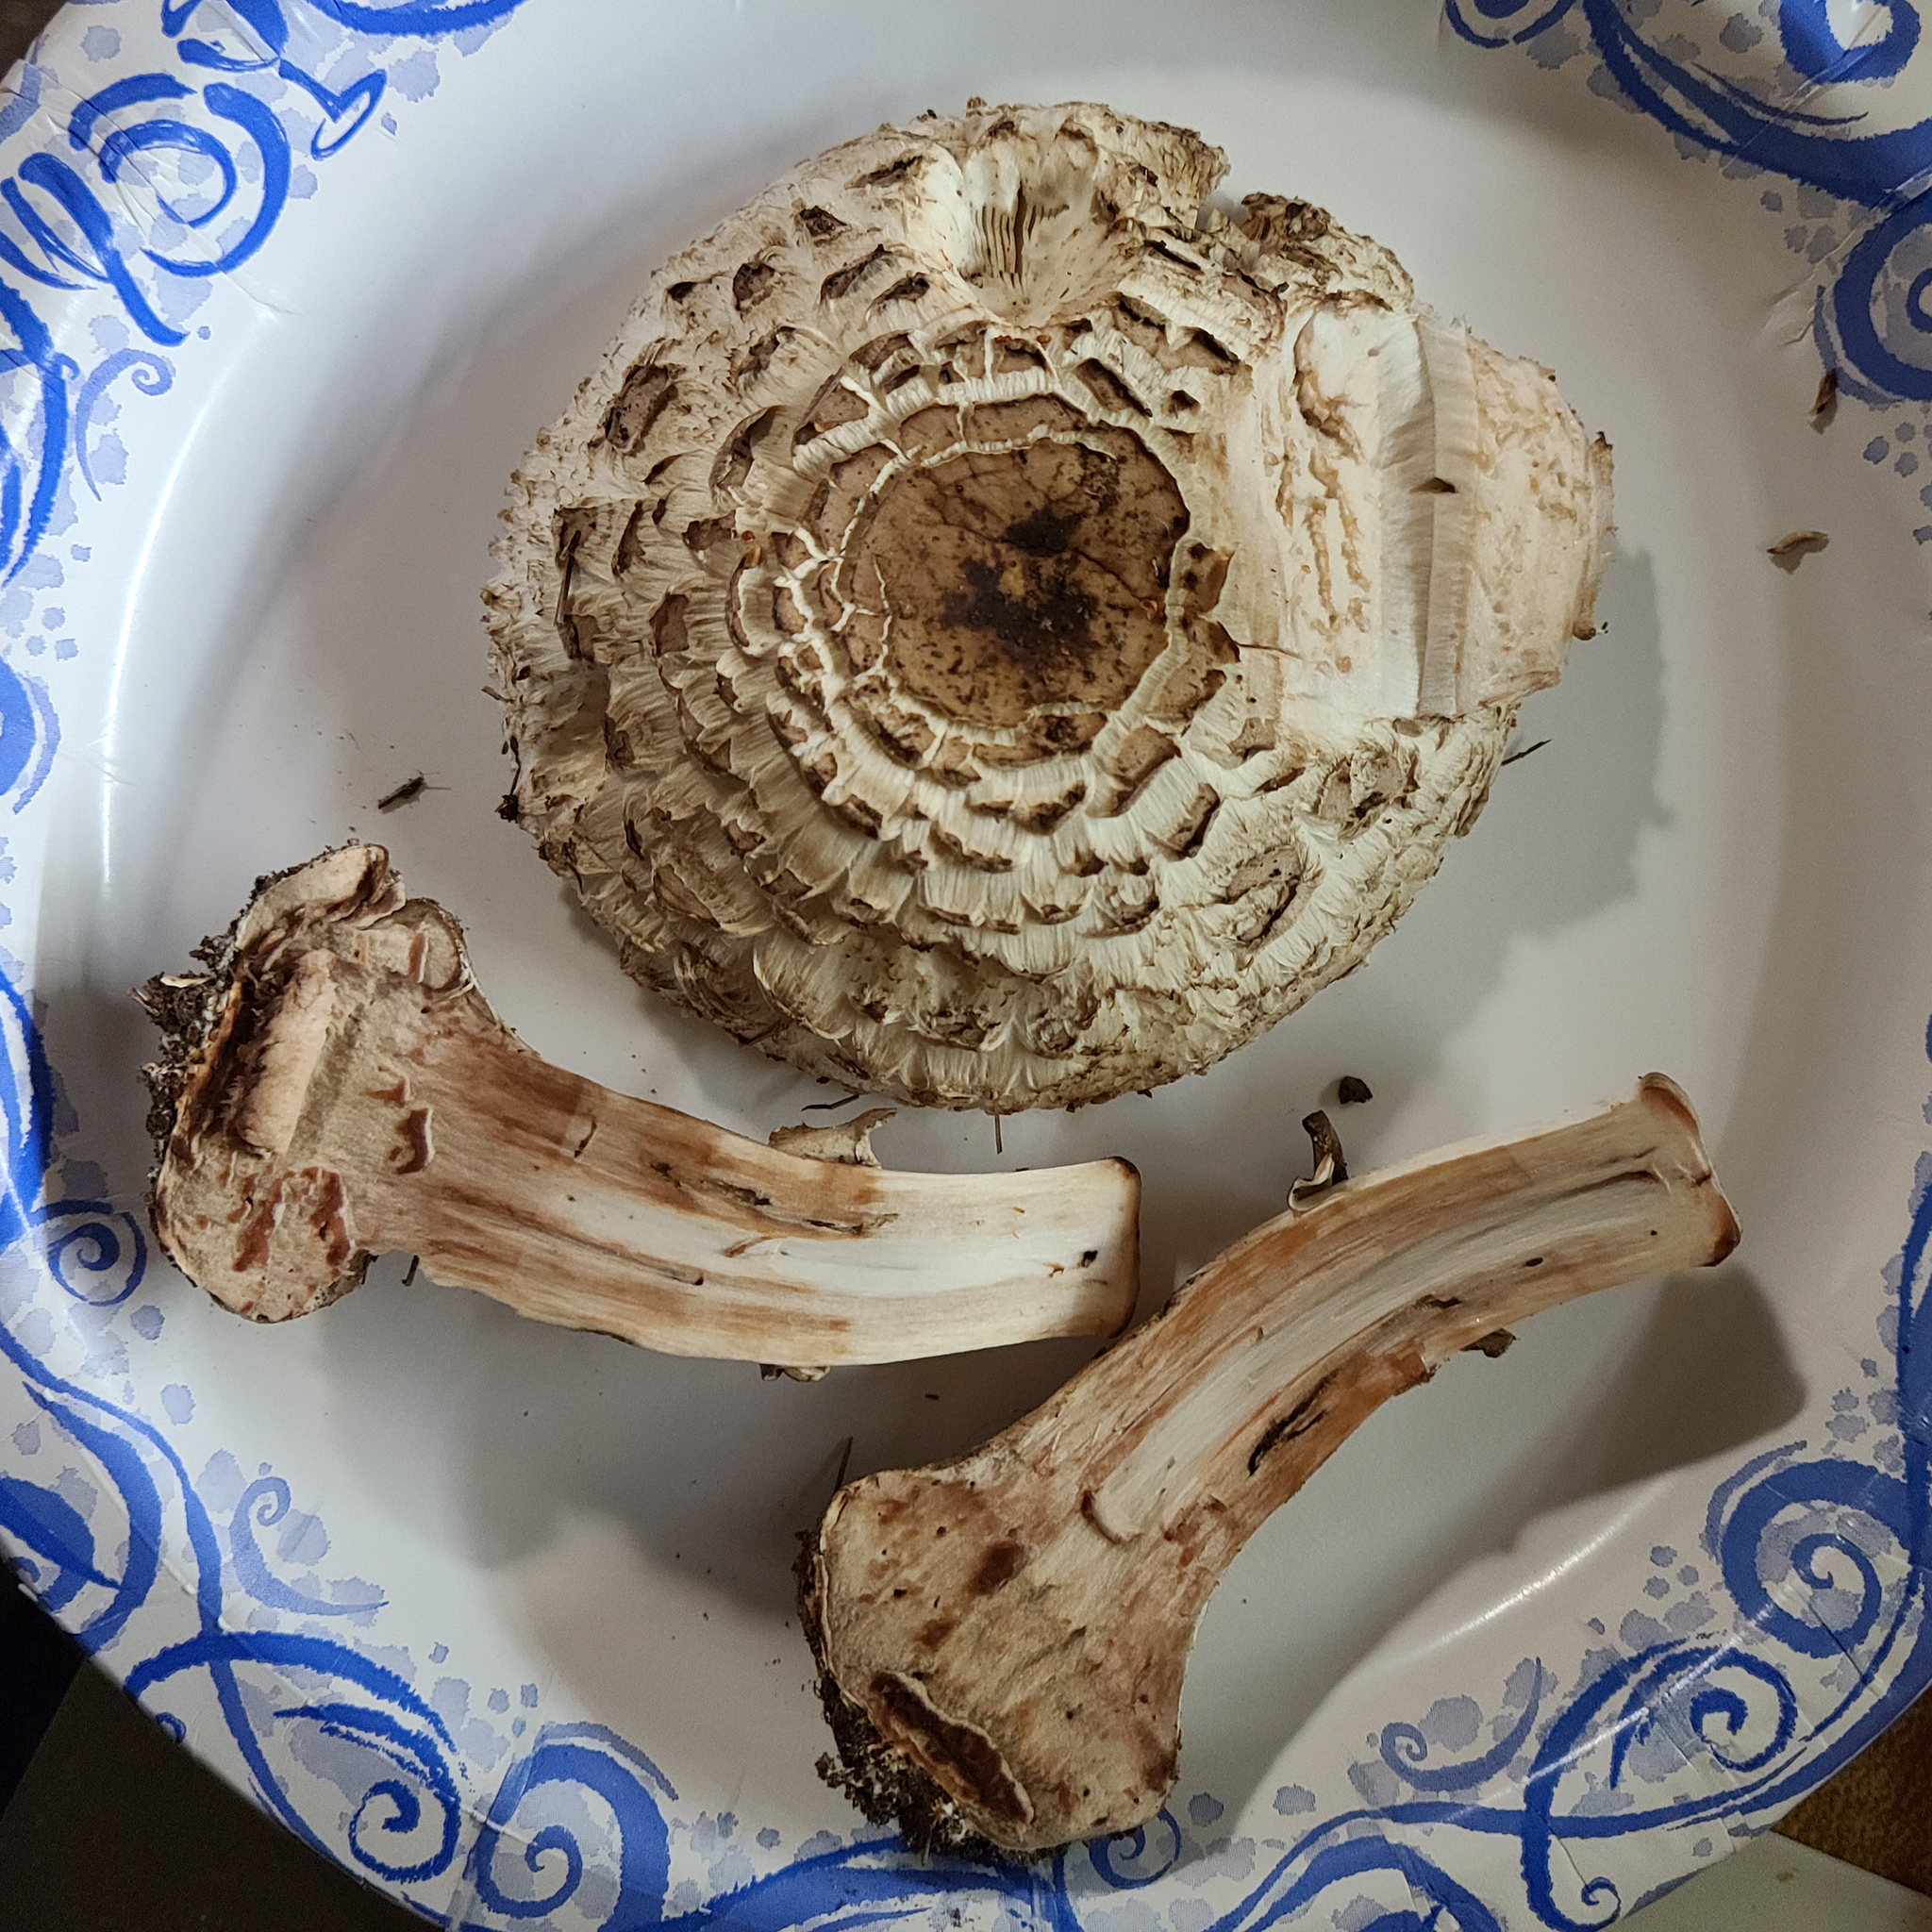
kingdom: Fungi
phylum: Basidiomycota
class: Agaricomycetes
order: Agaricales
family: Agaricaceae
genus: Chlorophyllum
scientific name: Chlorophyllum rhacodes
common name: Shaggy parasol
